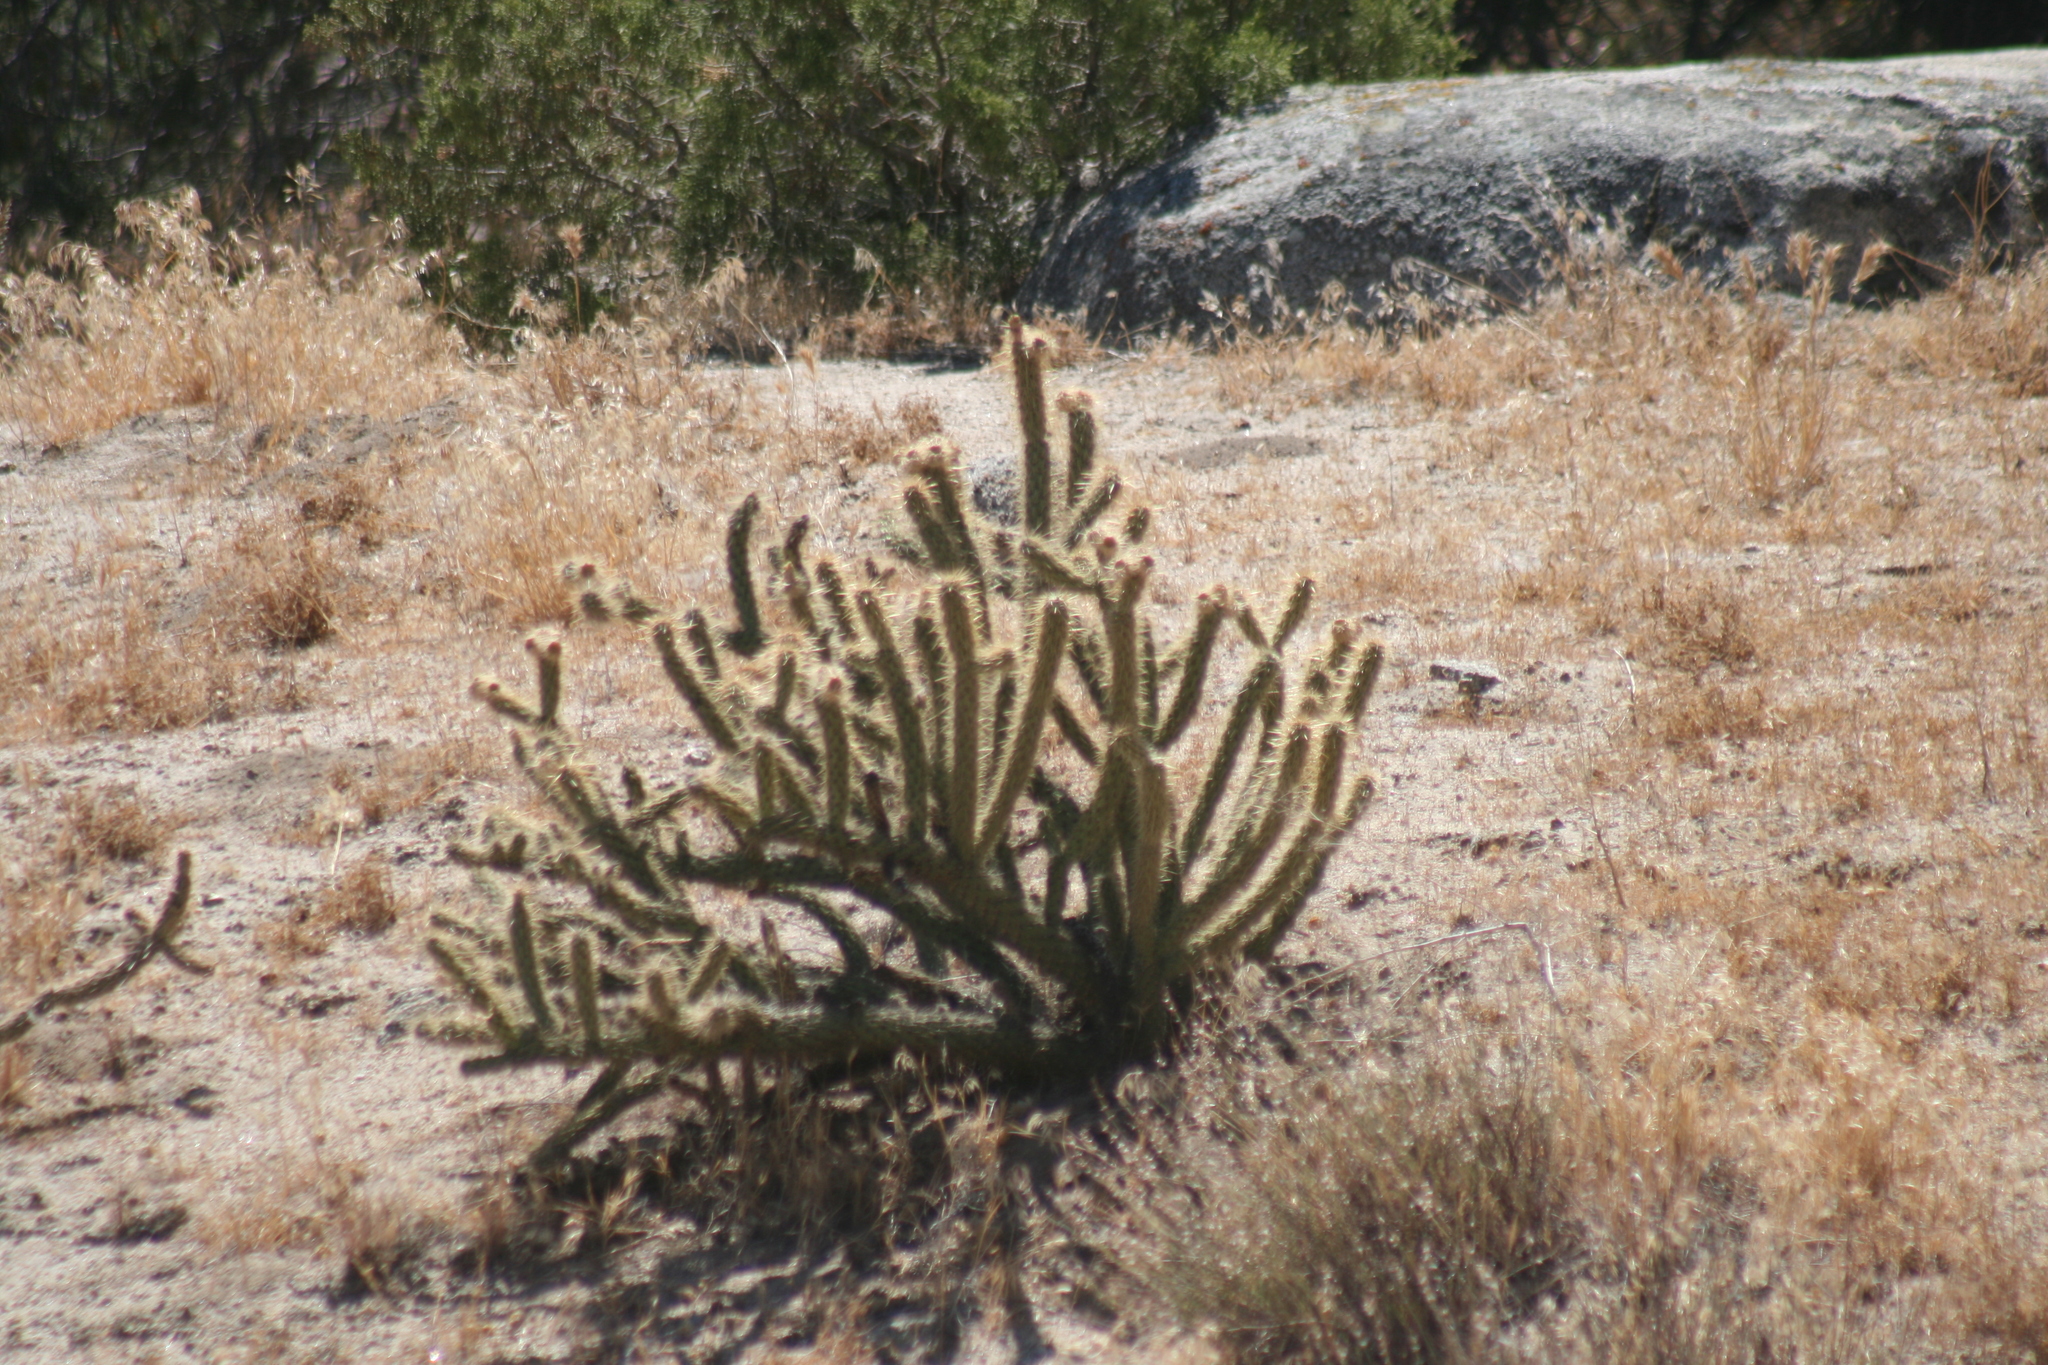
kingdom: Plantae
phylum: Tracheophyta
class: Magnoliopsida
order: Caryophyllales
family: Cactaceae
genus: Cylindropuntia
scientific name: Cylindropuntia wolfii
